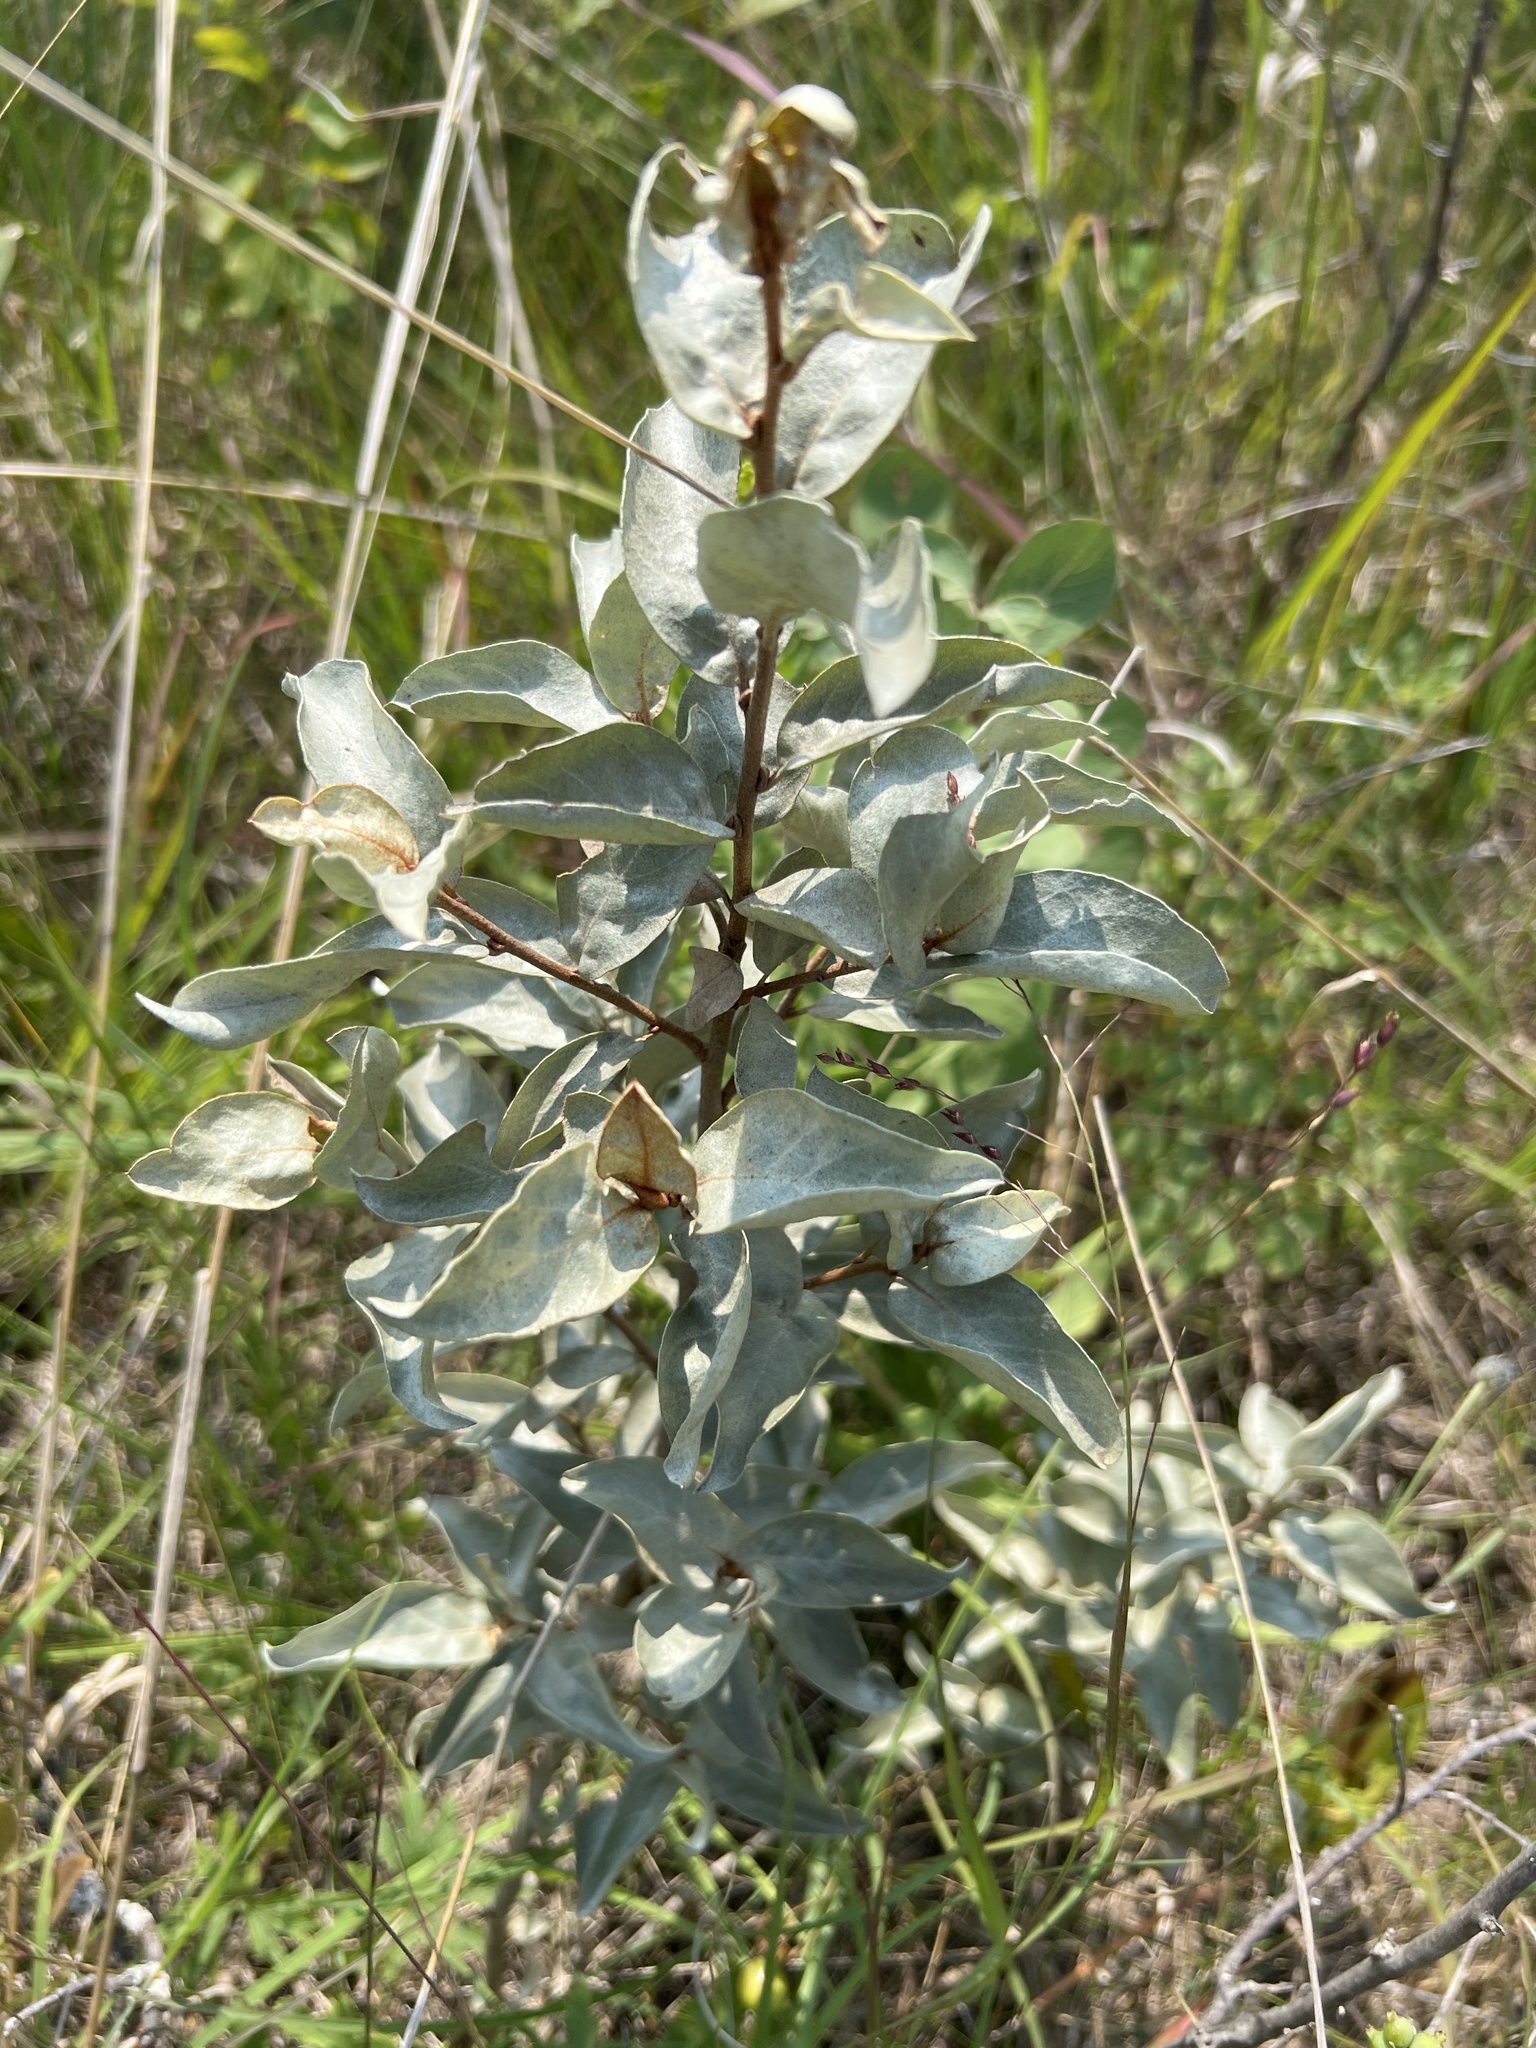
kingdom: Plantae
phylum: Tracheophyta
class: Magnoliopsida
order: Rosales
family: Elaeagnaceae
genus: Elaeagnus
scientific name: Elaeagnus commutata
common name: Silverberry
